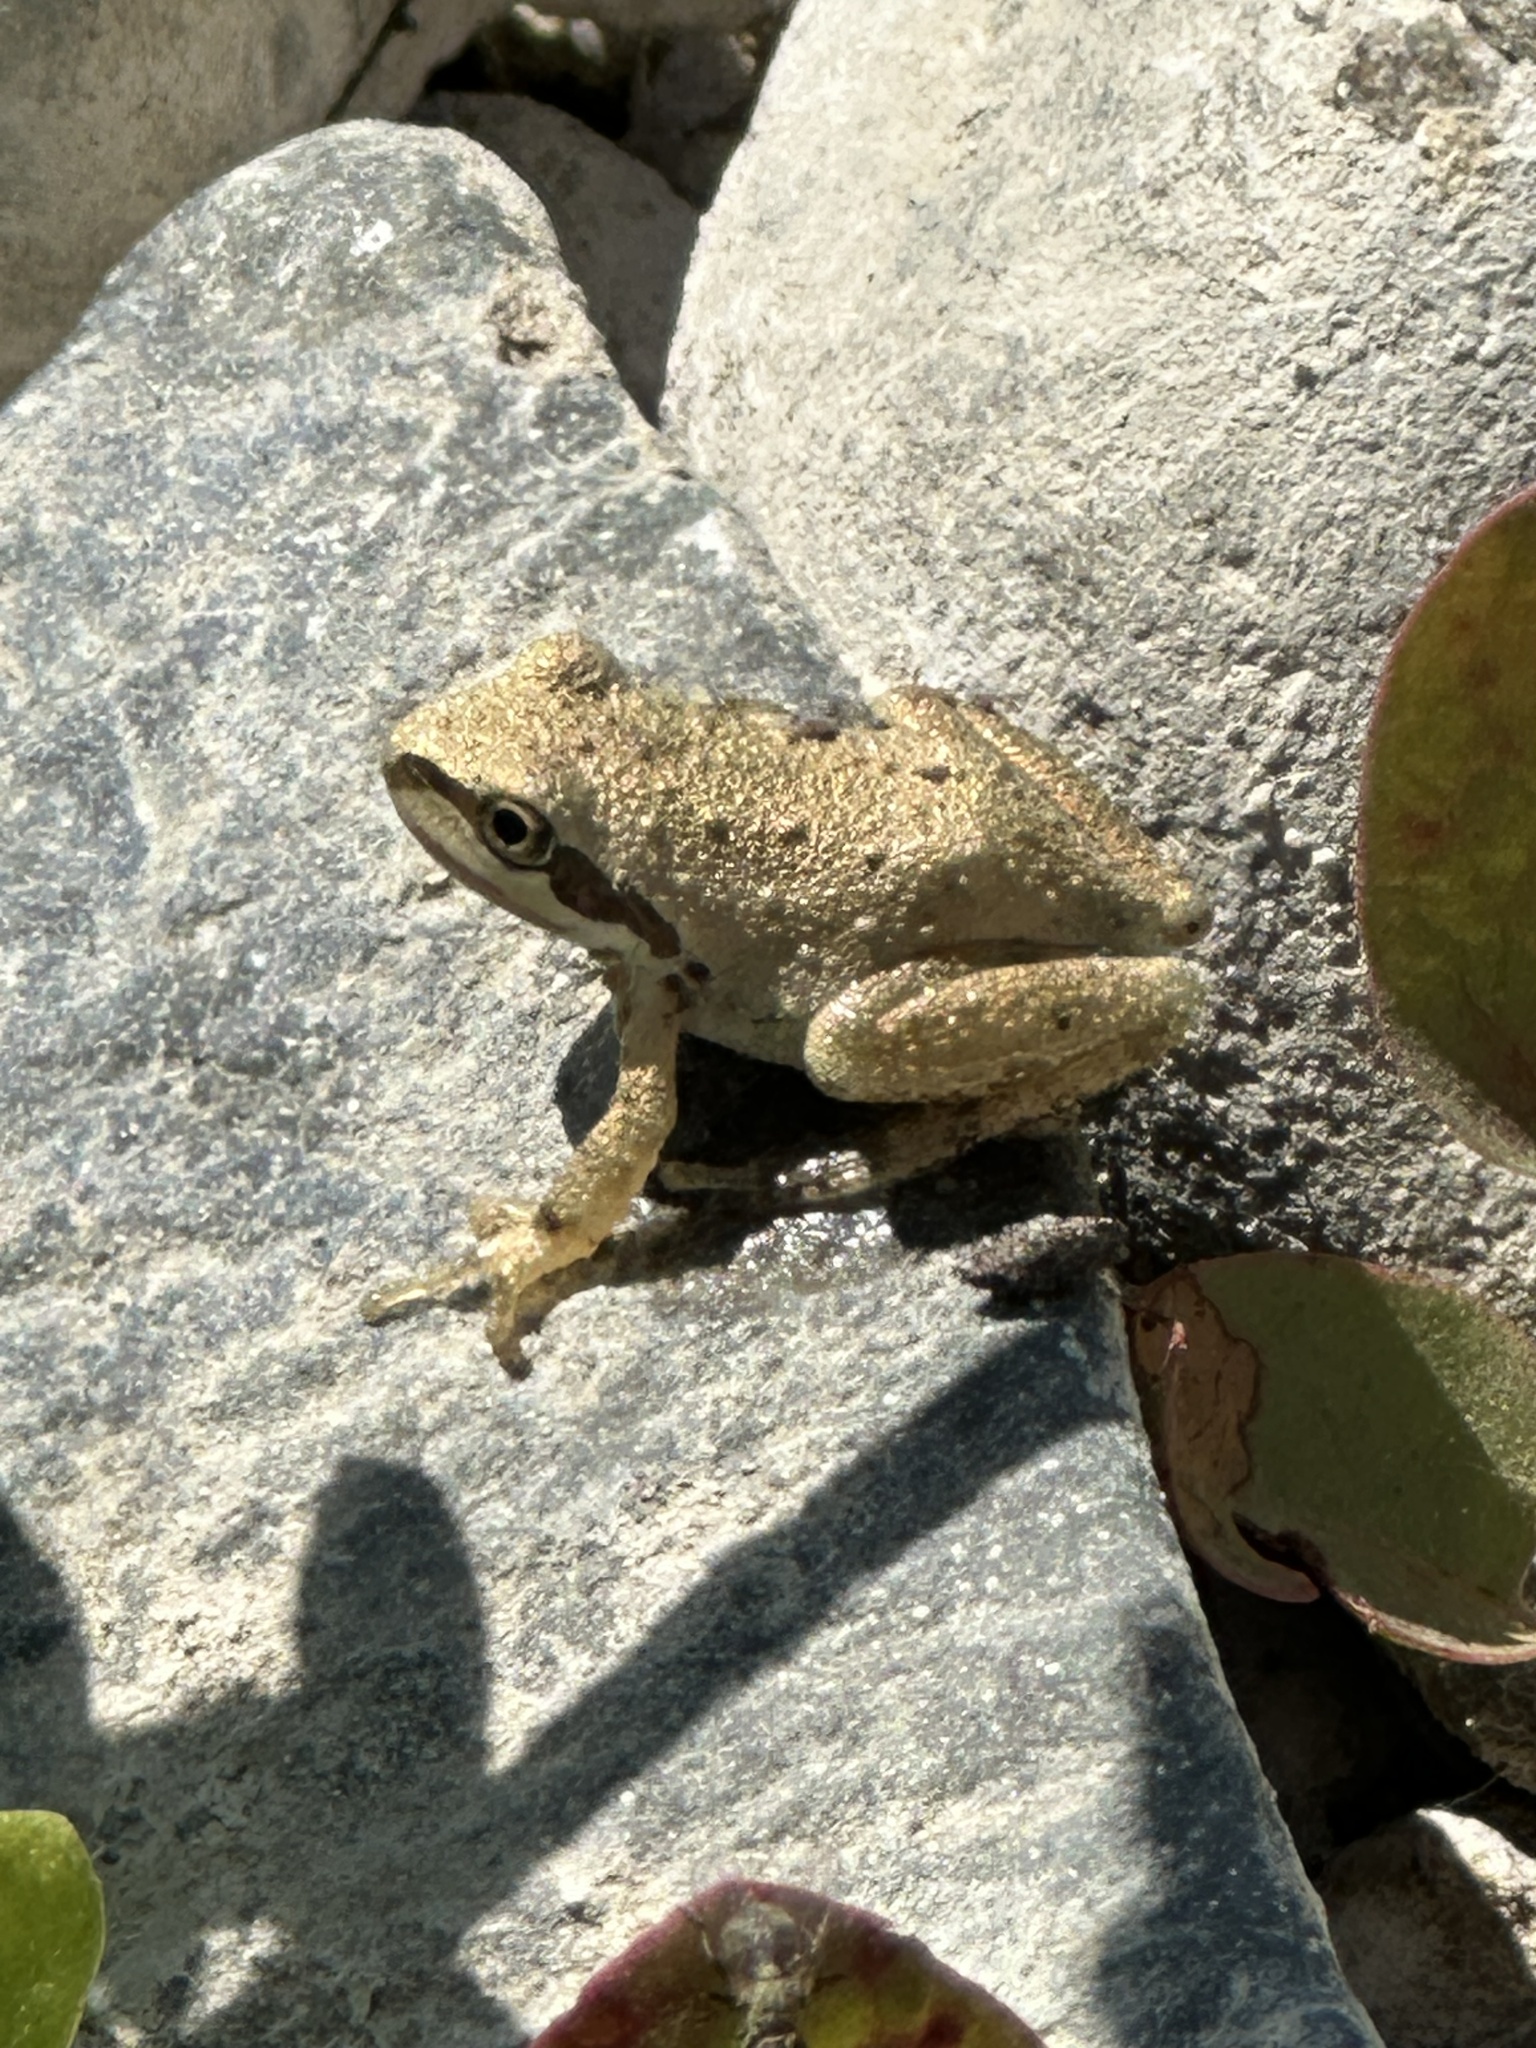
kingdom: Animalia
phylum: Chordata
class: Amphibia
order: Anura
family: Hylidae
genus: Pseudacris
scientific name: Pseudacris regilla
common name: Pacific chorus frog
